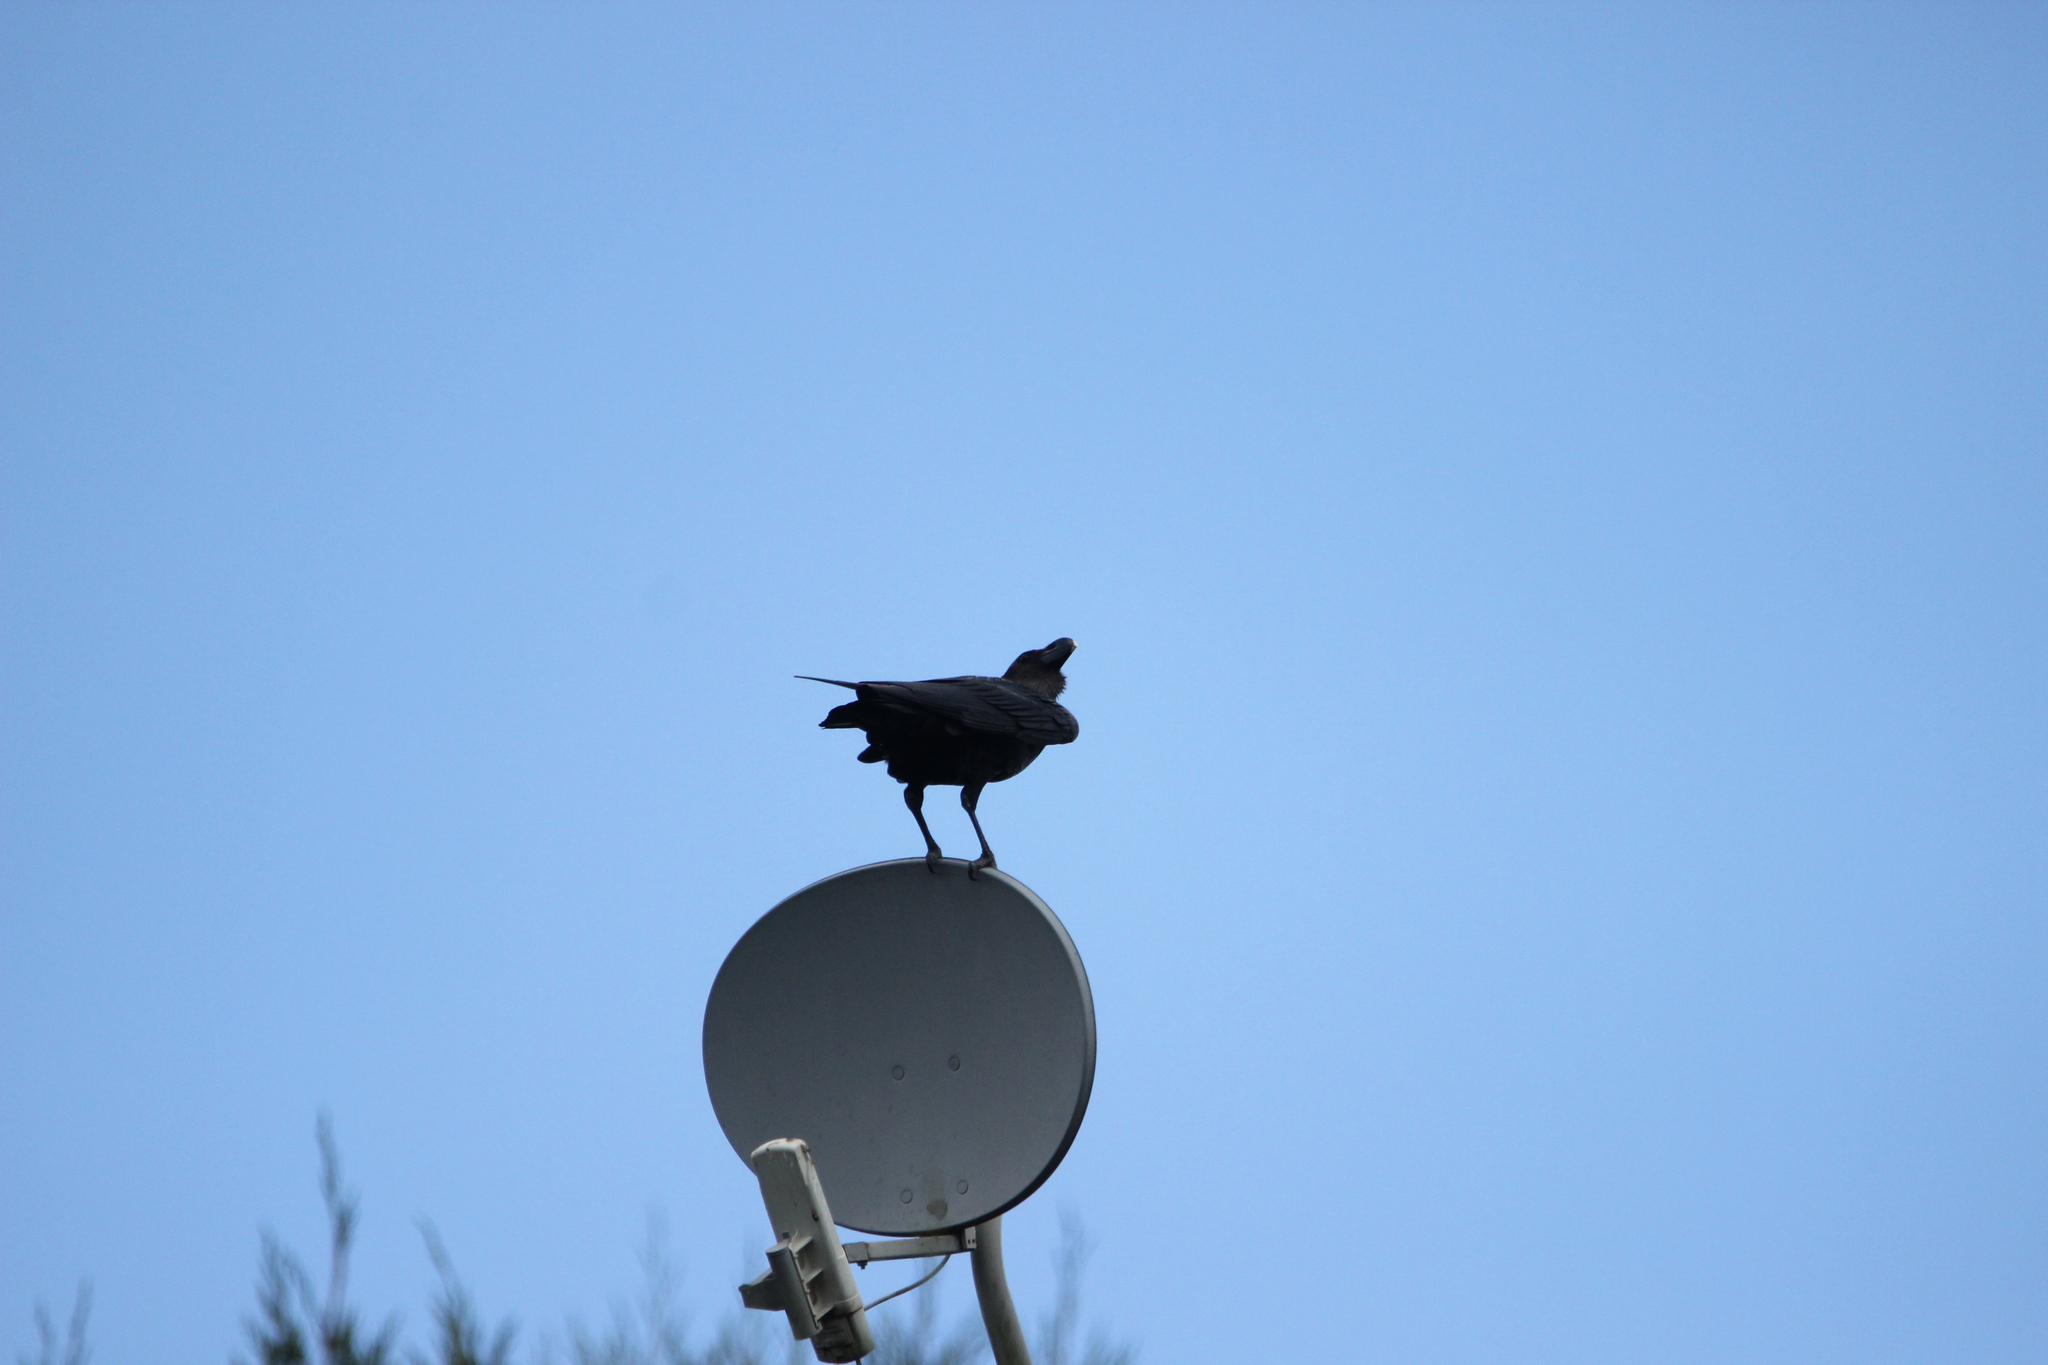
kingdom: Animalia
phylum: Chordata
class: Aves
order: Passeriformes
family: Corvidae
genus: Corvus
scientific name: Corvus albicollis
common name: White-necked raven
